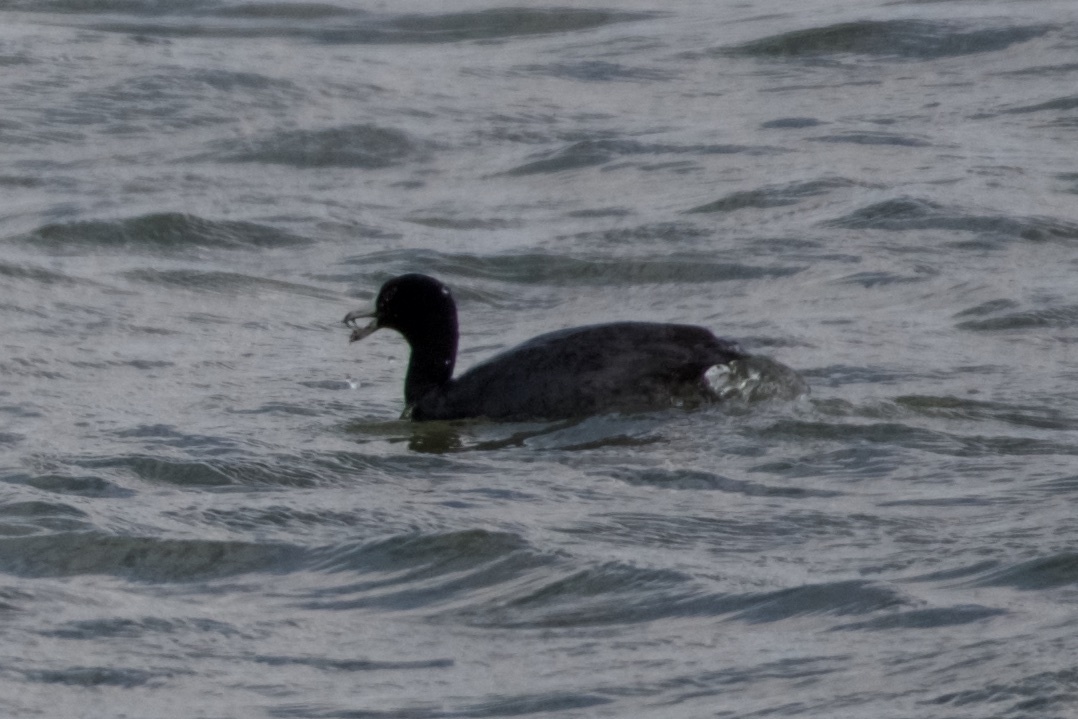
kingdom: Animalia
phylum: Chordata
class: Aves
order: Gruiformes
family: Rallidae
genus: Fulica
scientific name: Fulica americana
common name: American coot
